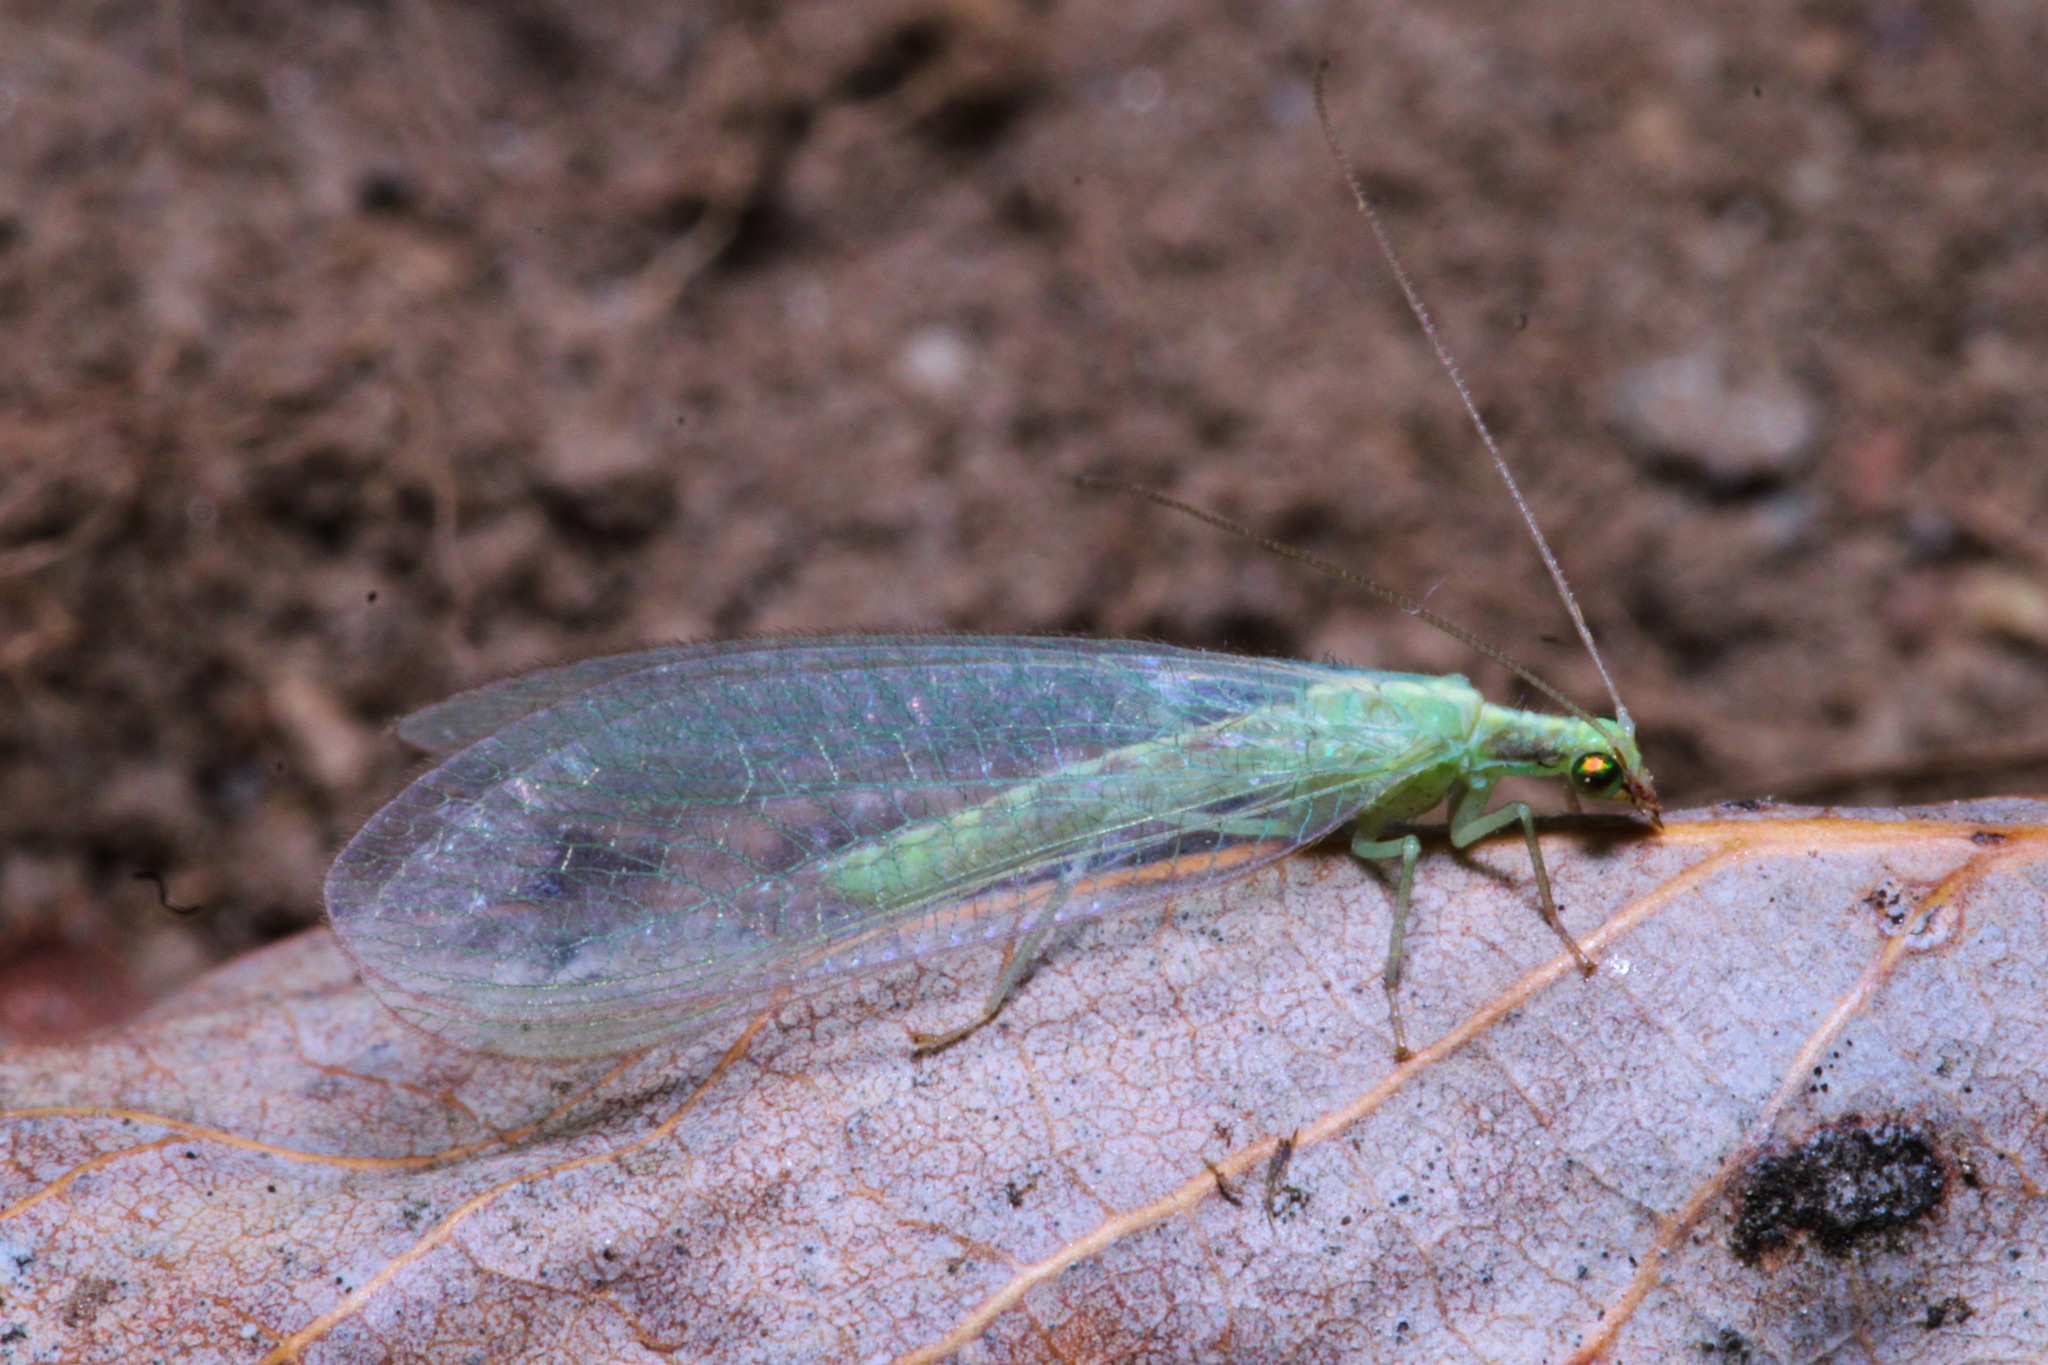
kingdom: Animalia
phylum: Arthropoda
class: Insecta
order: Neuroptera
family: Chrysopidae
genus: Chrysoperla
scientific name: Chrysoperla
